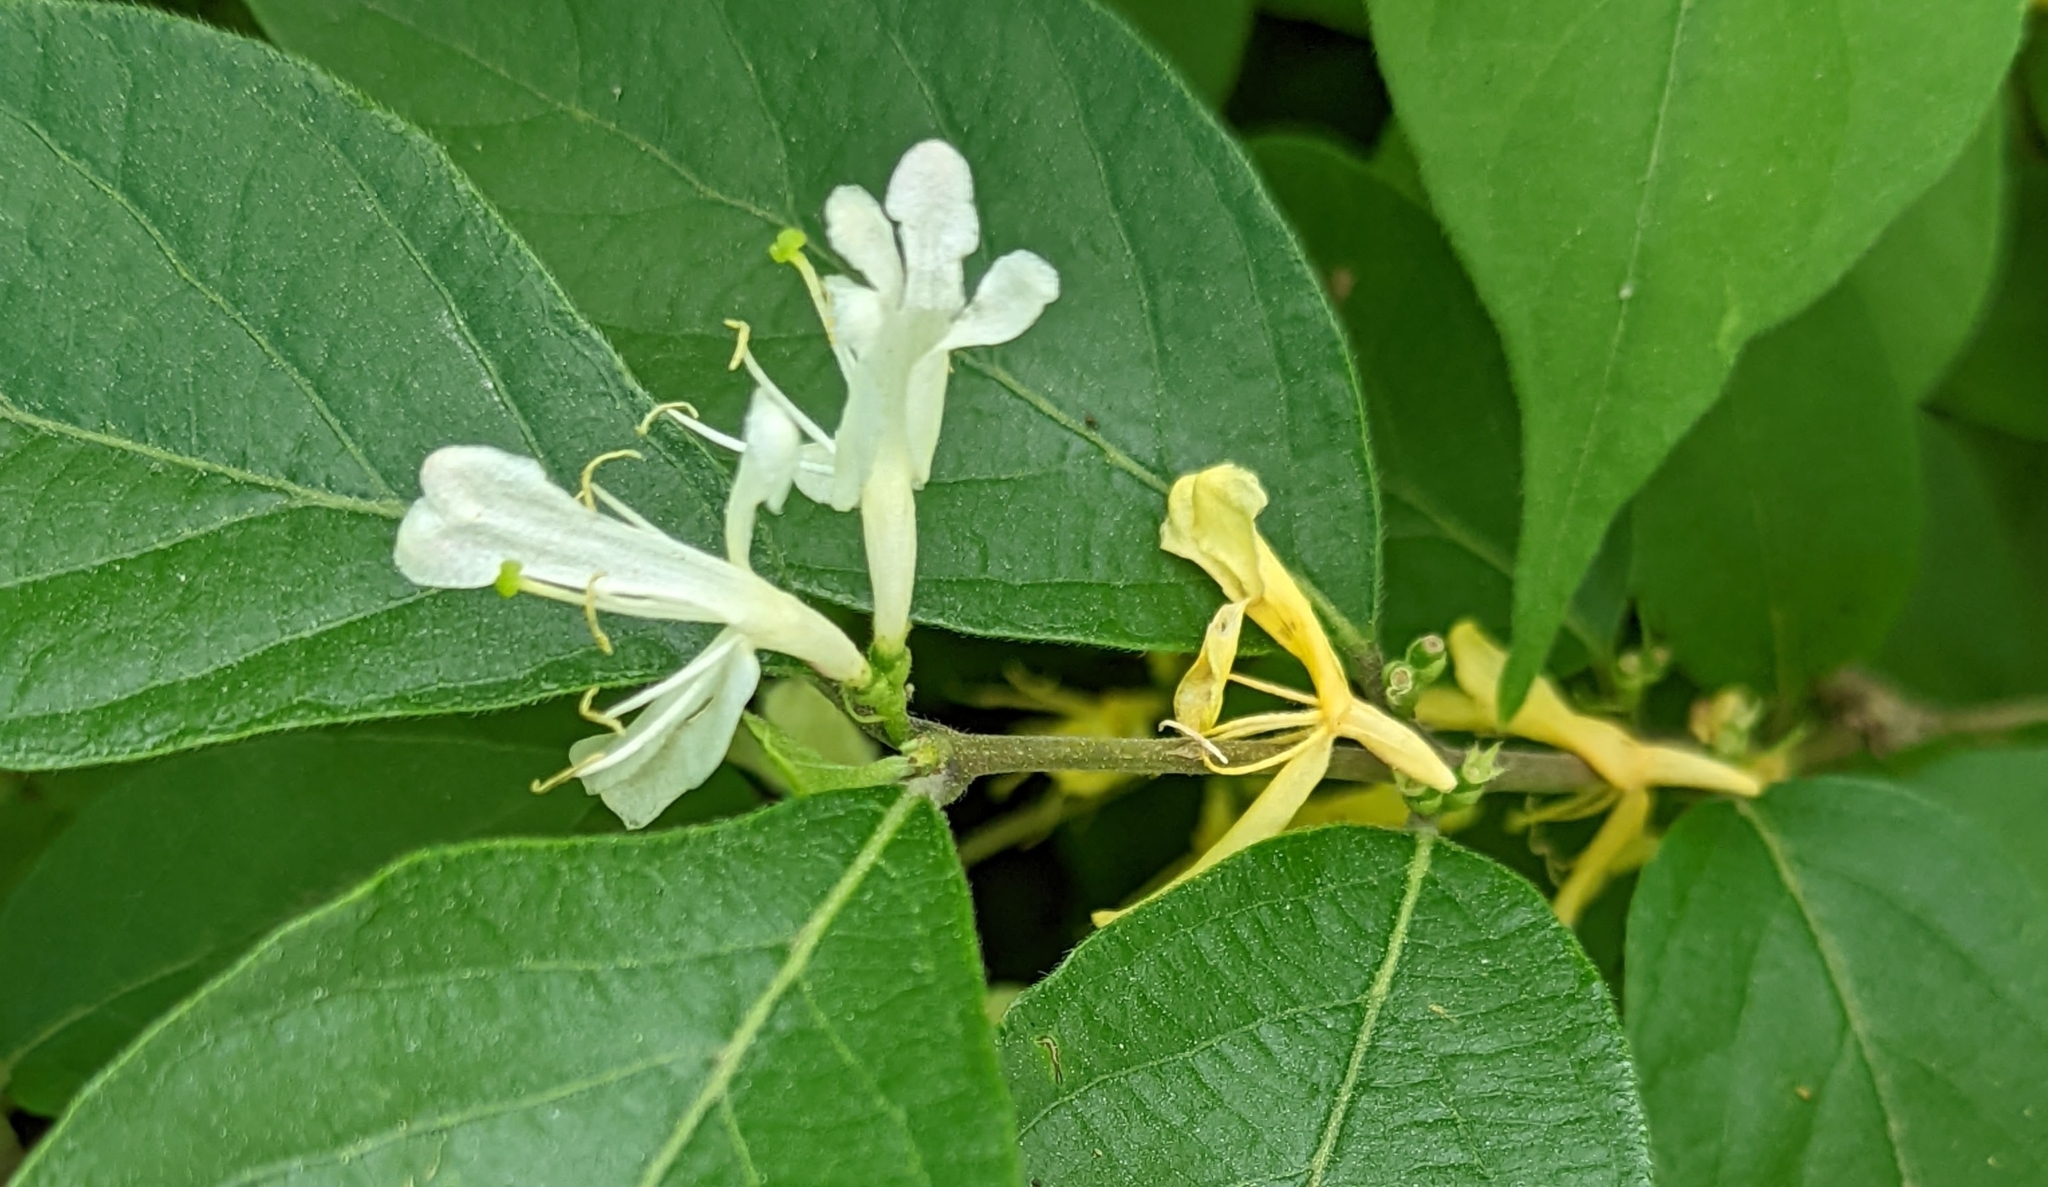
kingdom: Plantae
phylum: Tracheophyta
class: Magnoliopsida
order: Dipsacales
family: Caprifoliaceae
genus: Lonicera
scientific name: Lonicera maackii
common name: Amur honeysuckle
